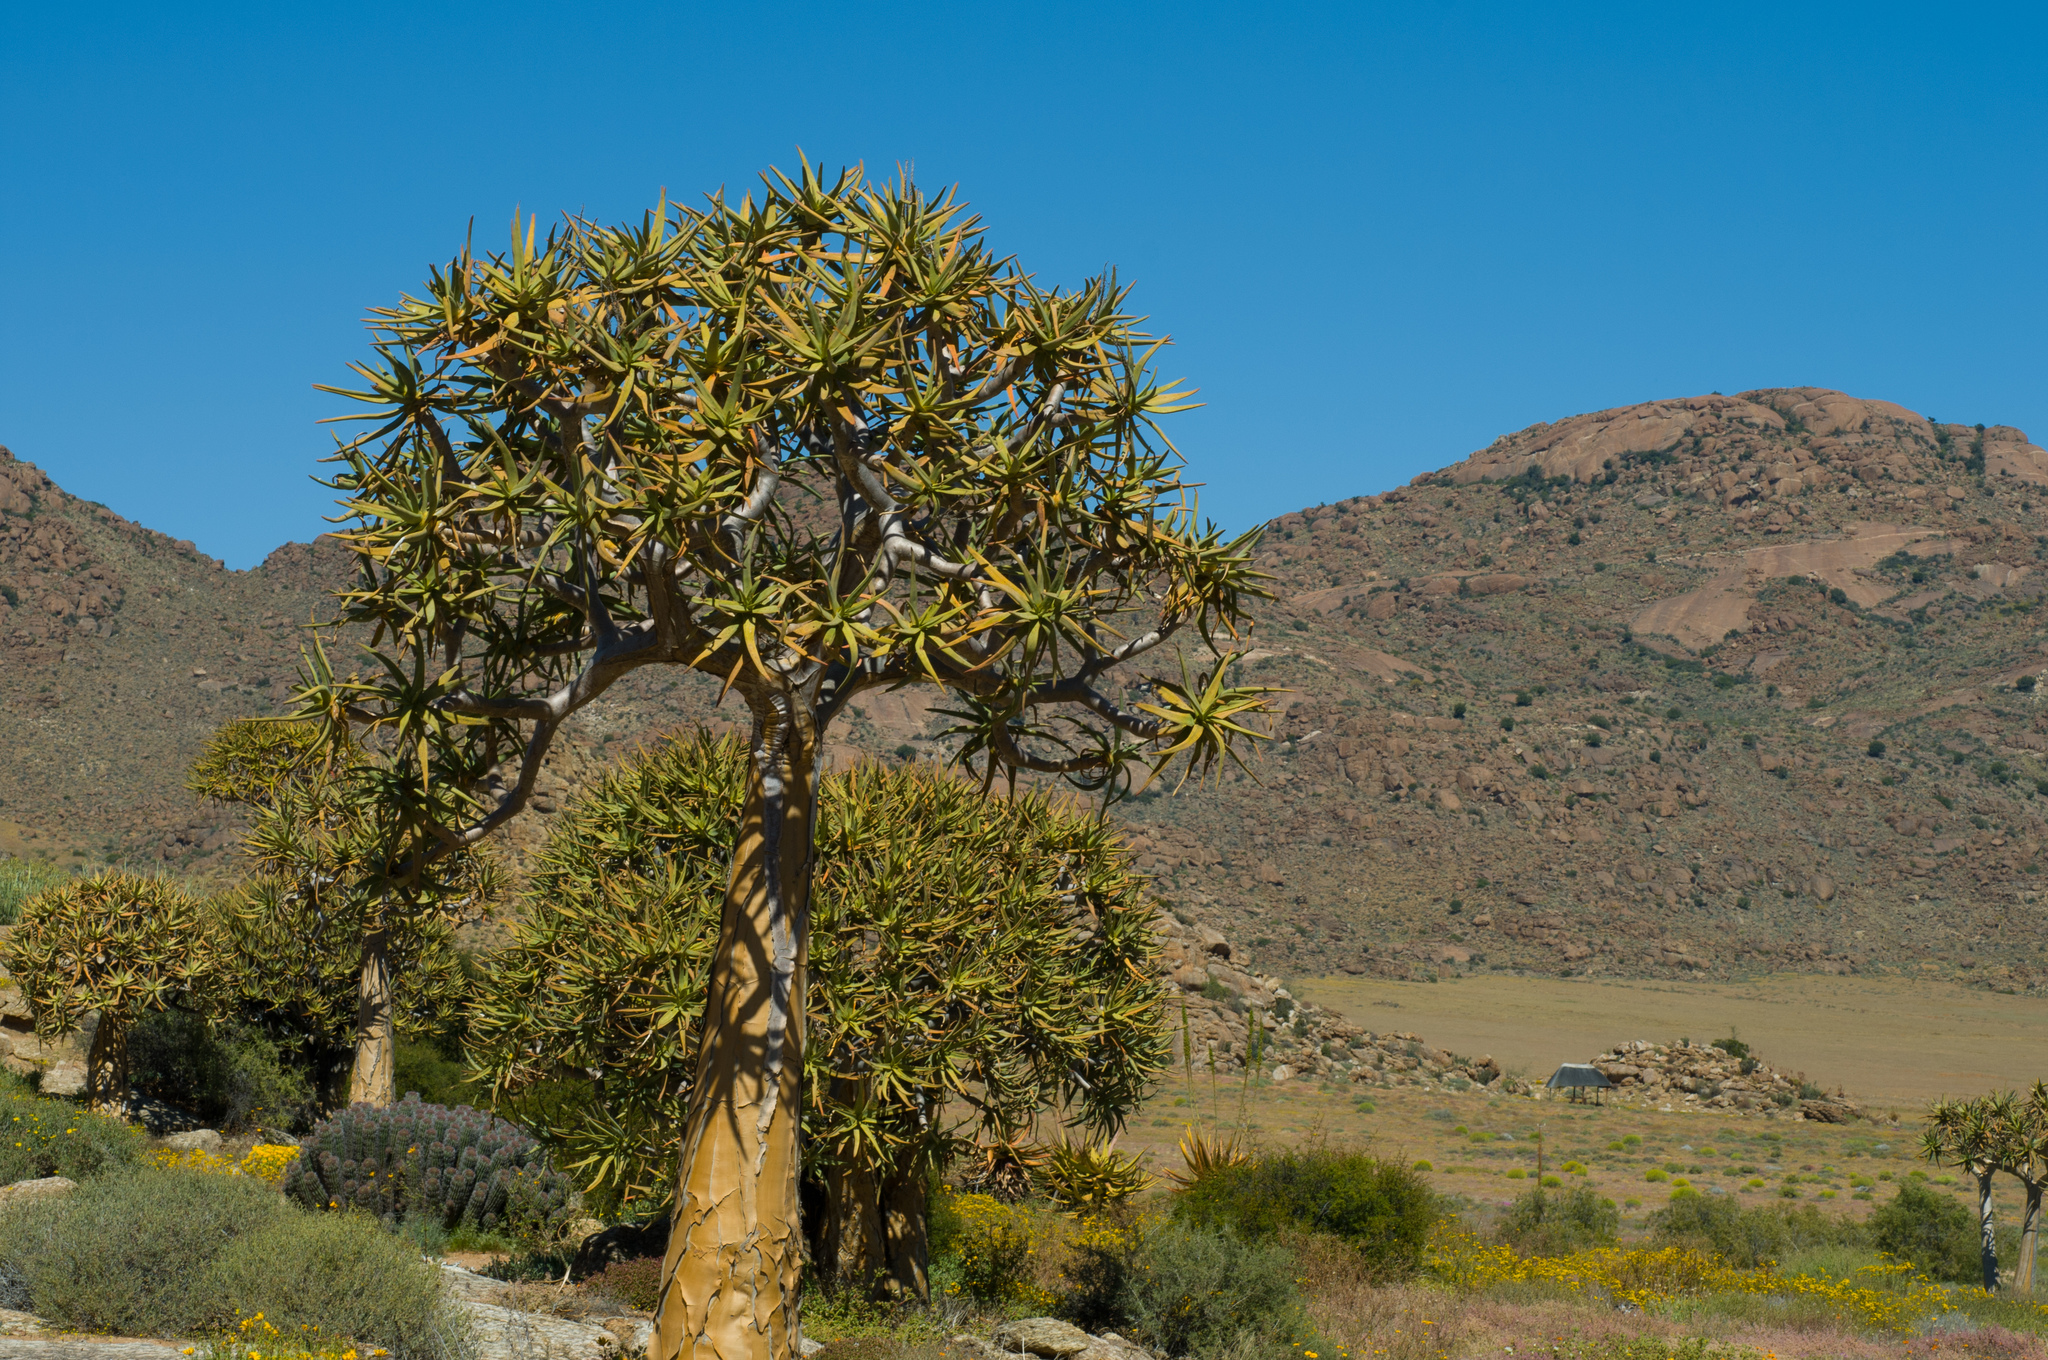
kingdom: Plantae
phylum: Tracheophyta
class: Liliopsida
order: Asparagales
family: Asphodelaceae
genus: Aloidendron
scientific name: Aloidendron dichotomum
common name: Quiver tree
